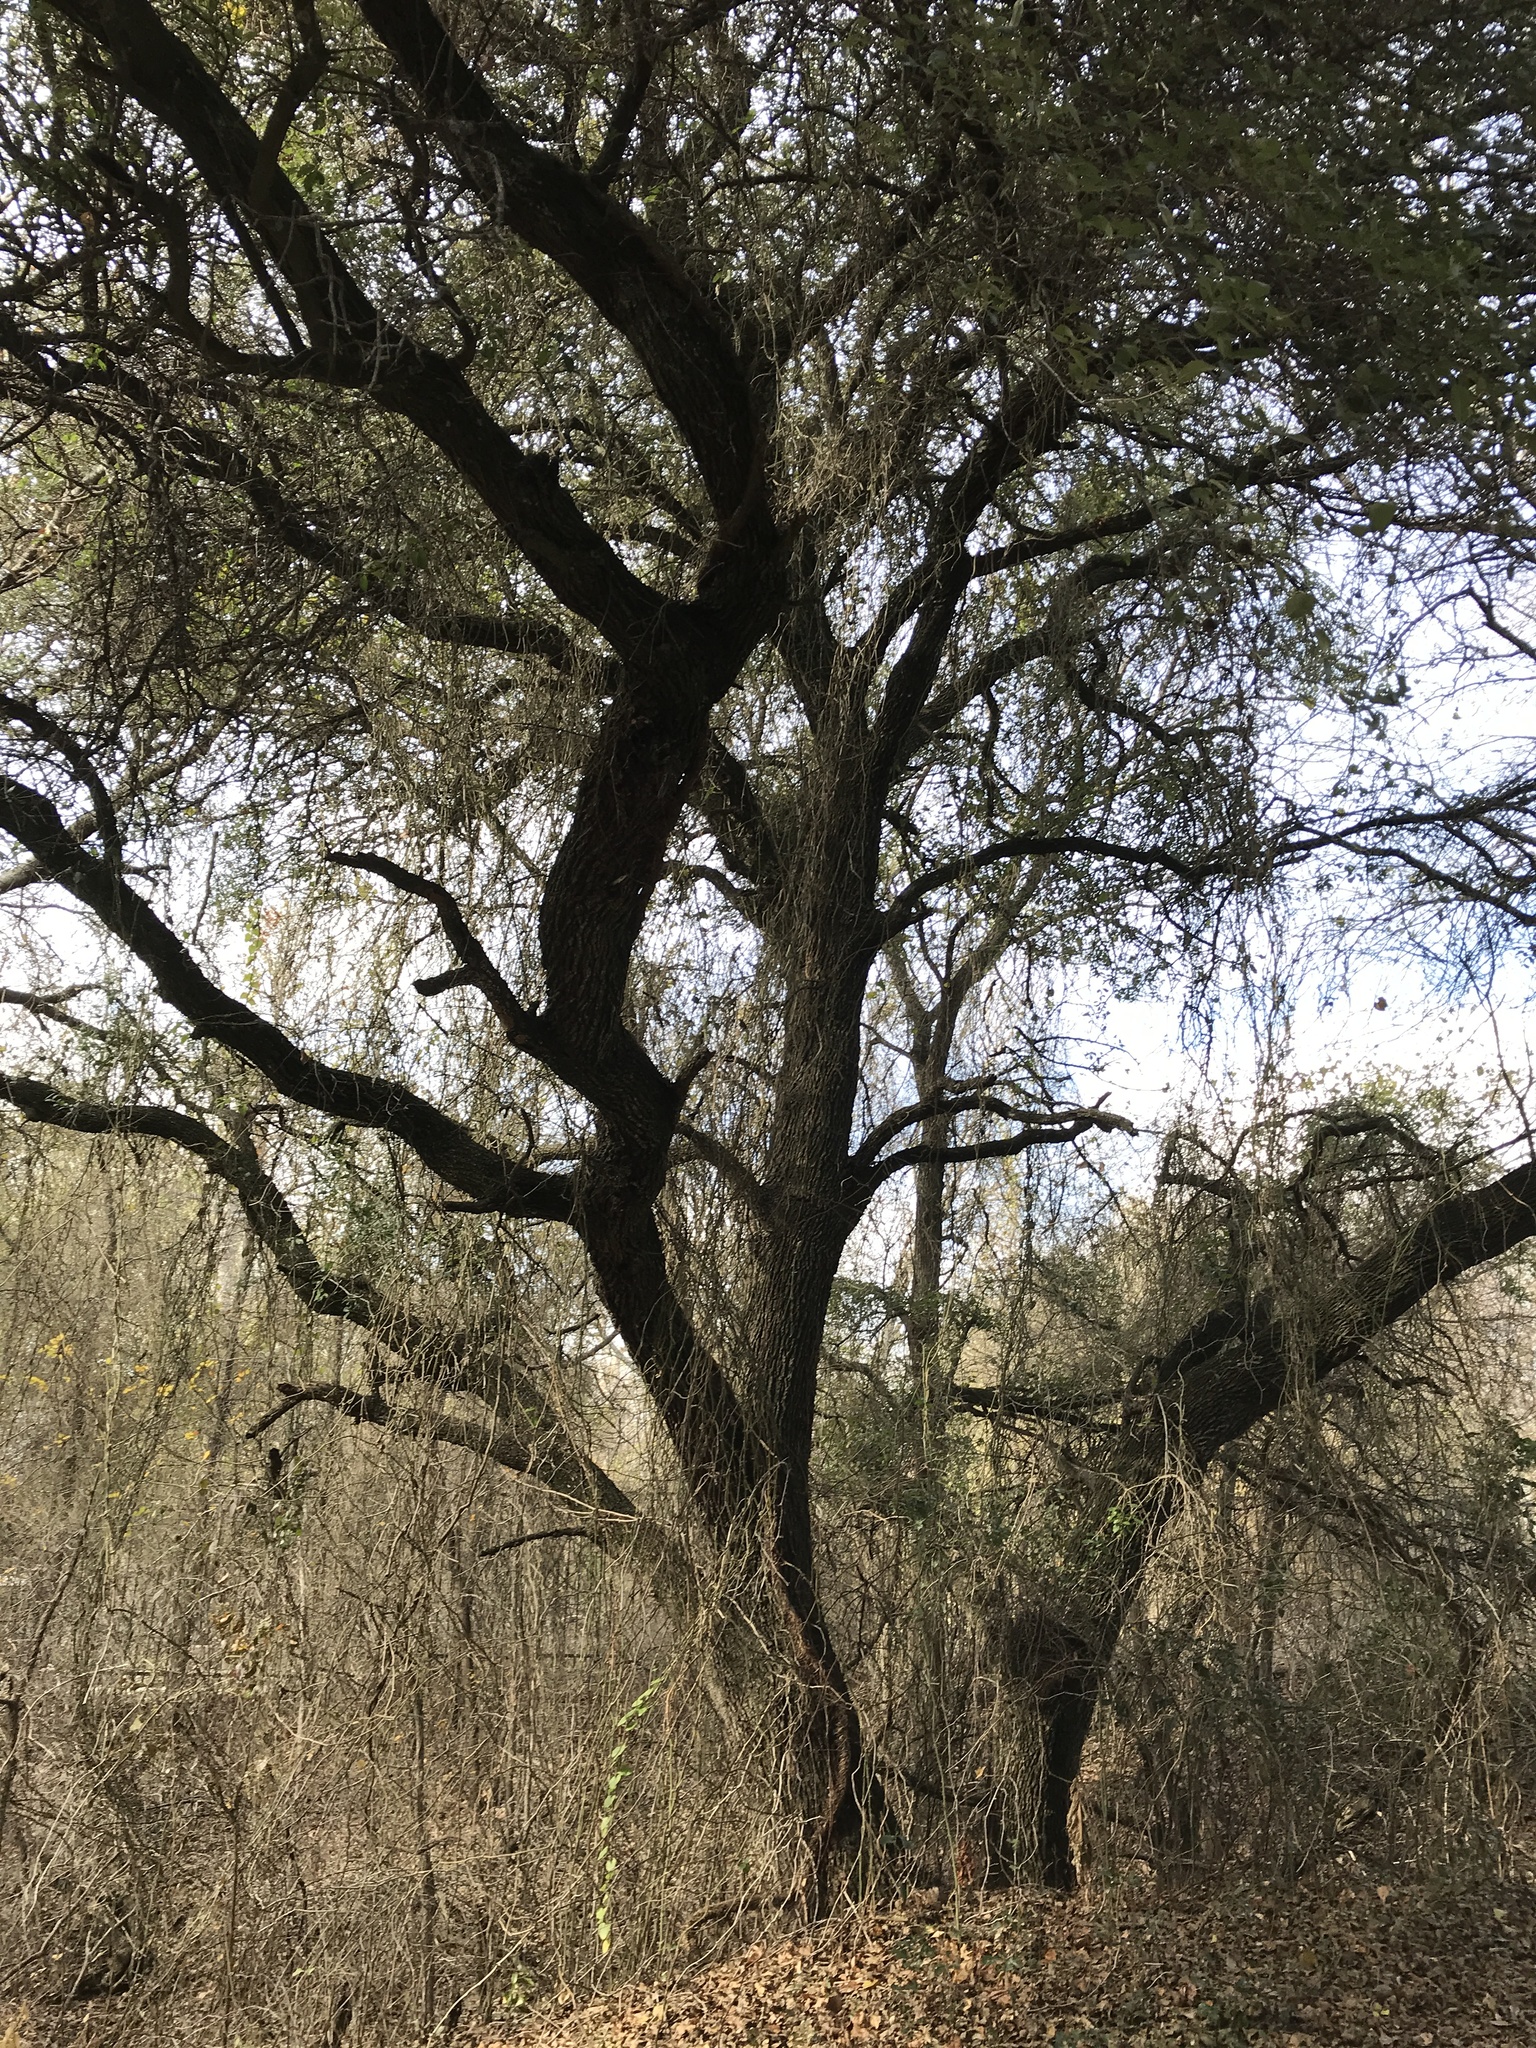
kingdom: Plantae
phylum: Tracheophyta
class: Magnoliopsida
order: Fagales
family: Fagaceae
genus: Quercus
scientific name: Quercus fusiformis
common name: Texas live oak
